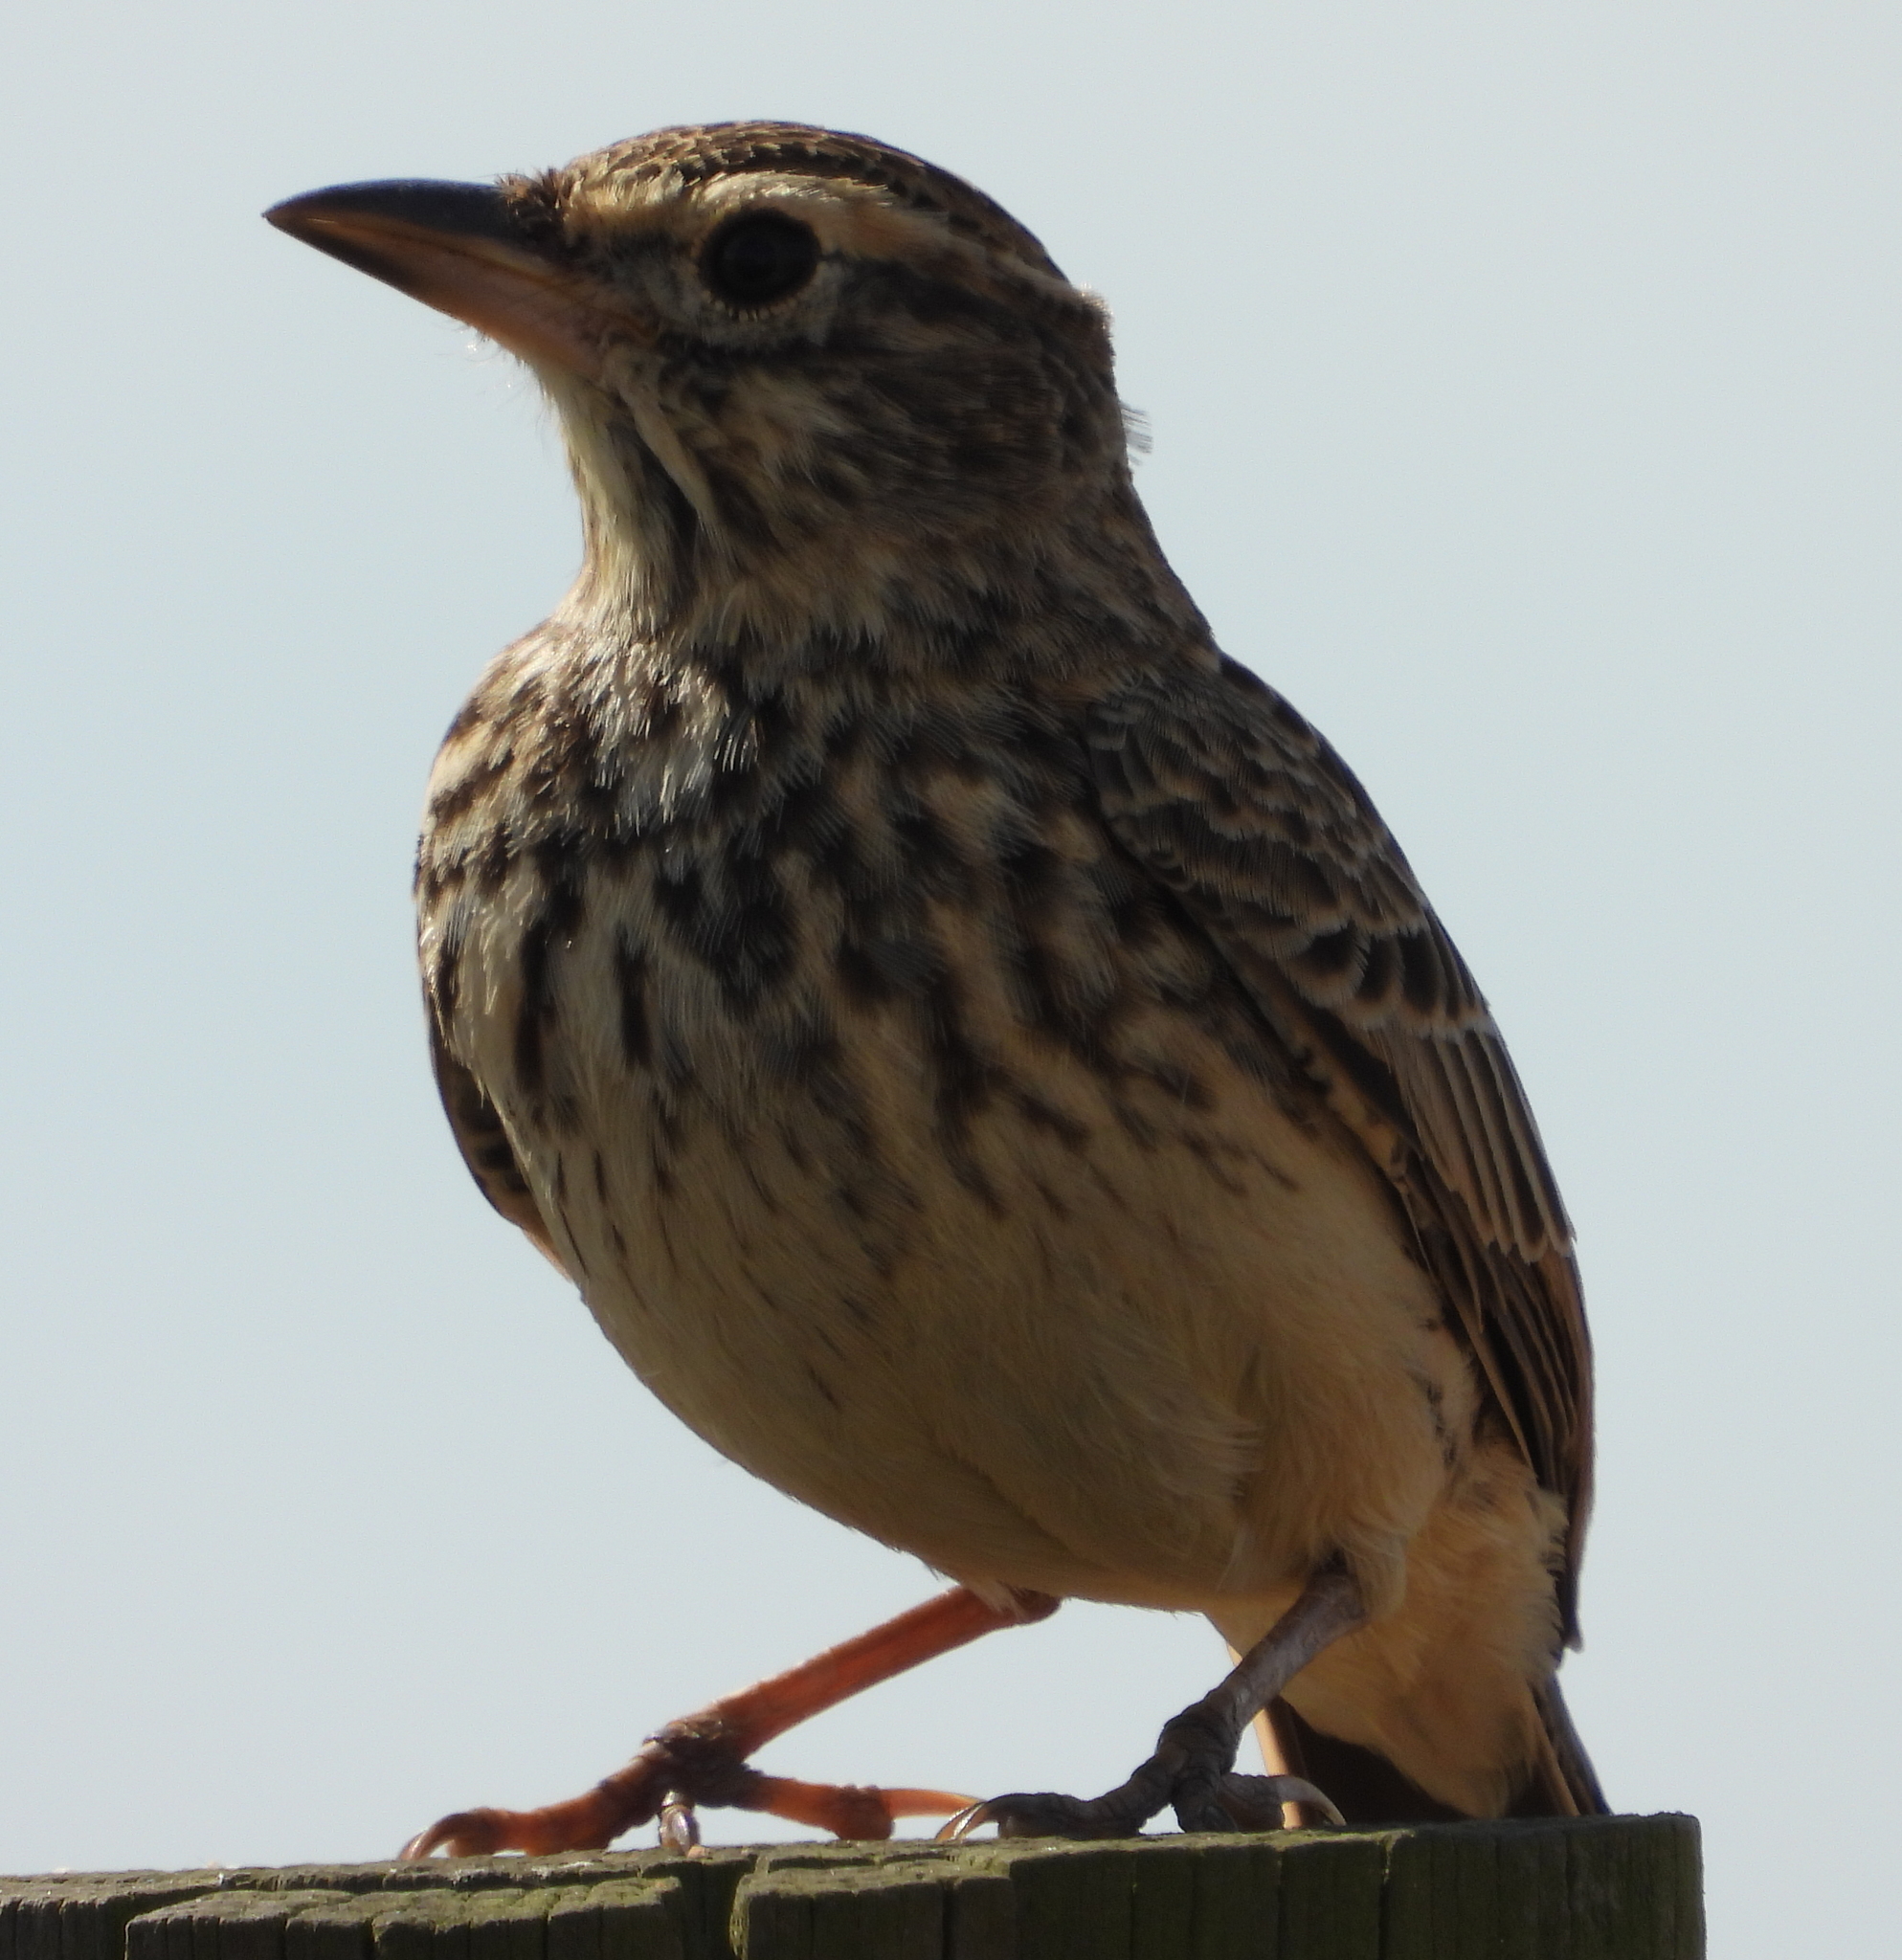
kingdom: Animalia
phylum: Chordata
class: Aves
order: Passeriformes
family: Alaudidae
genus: Galerida
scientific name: Galerida magnirostris
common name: Large-billed lark
